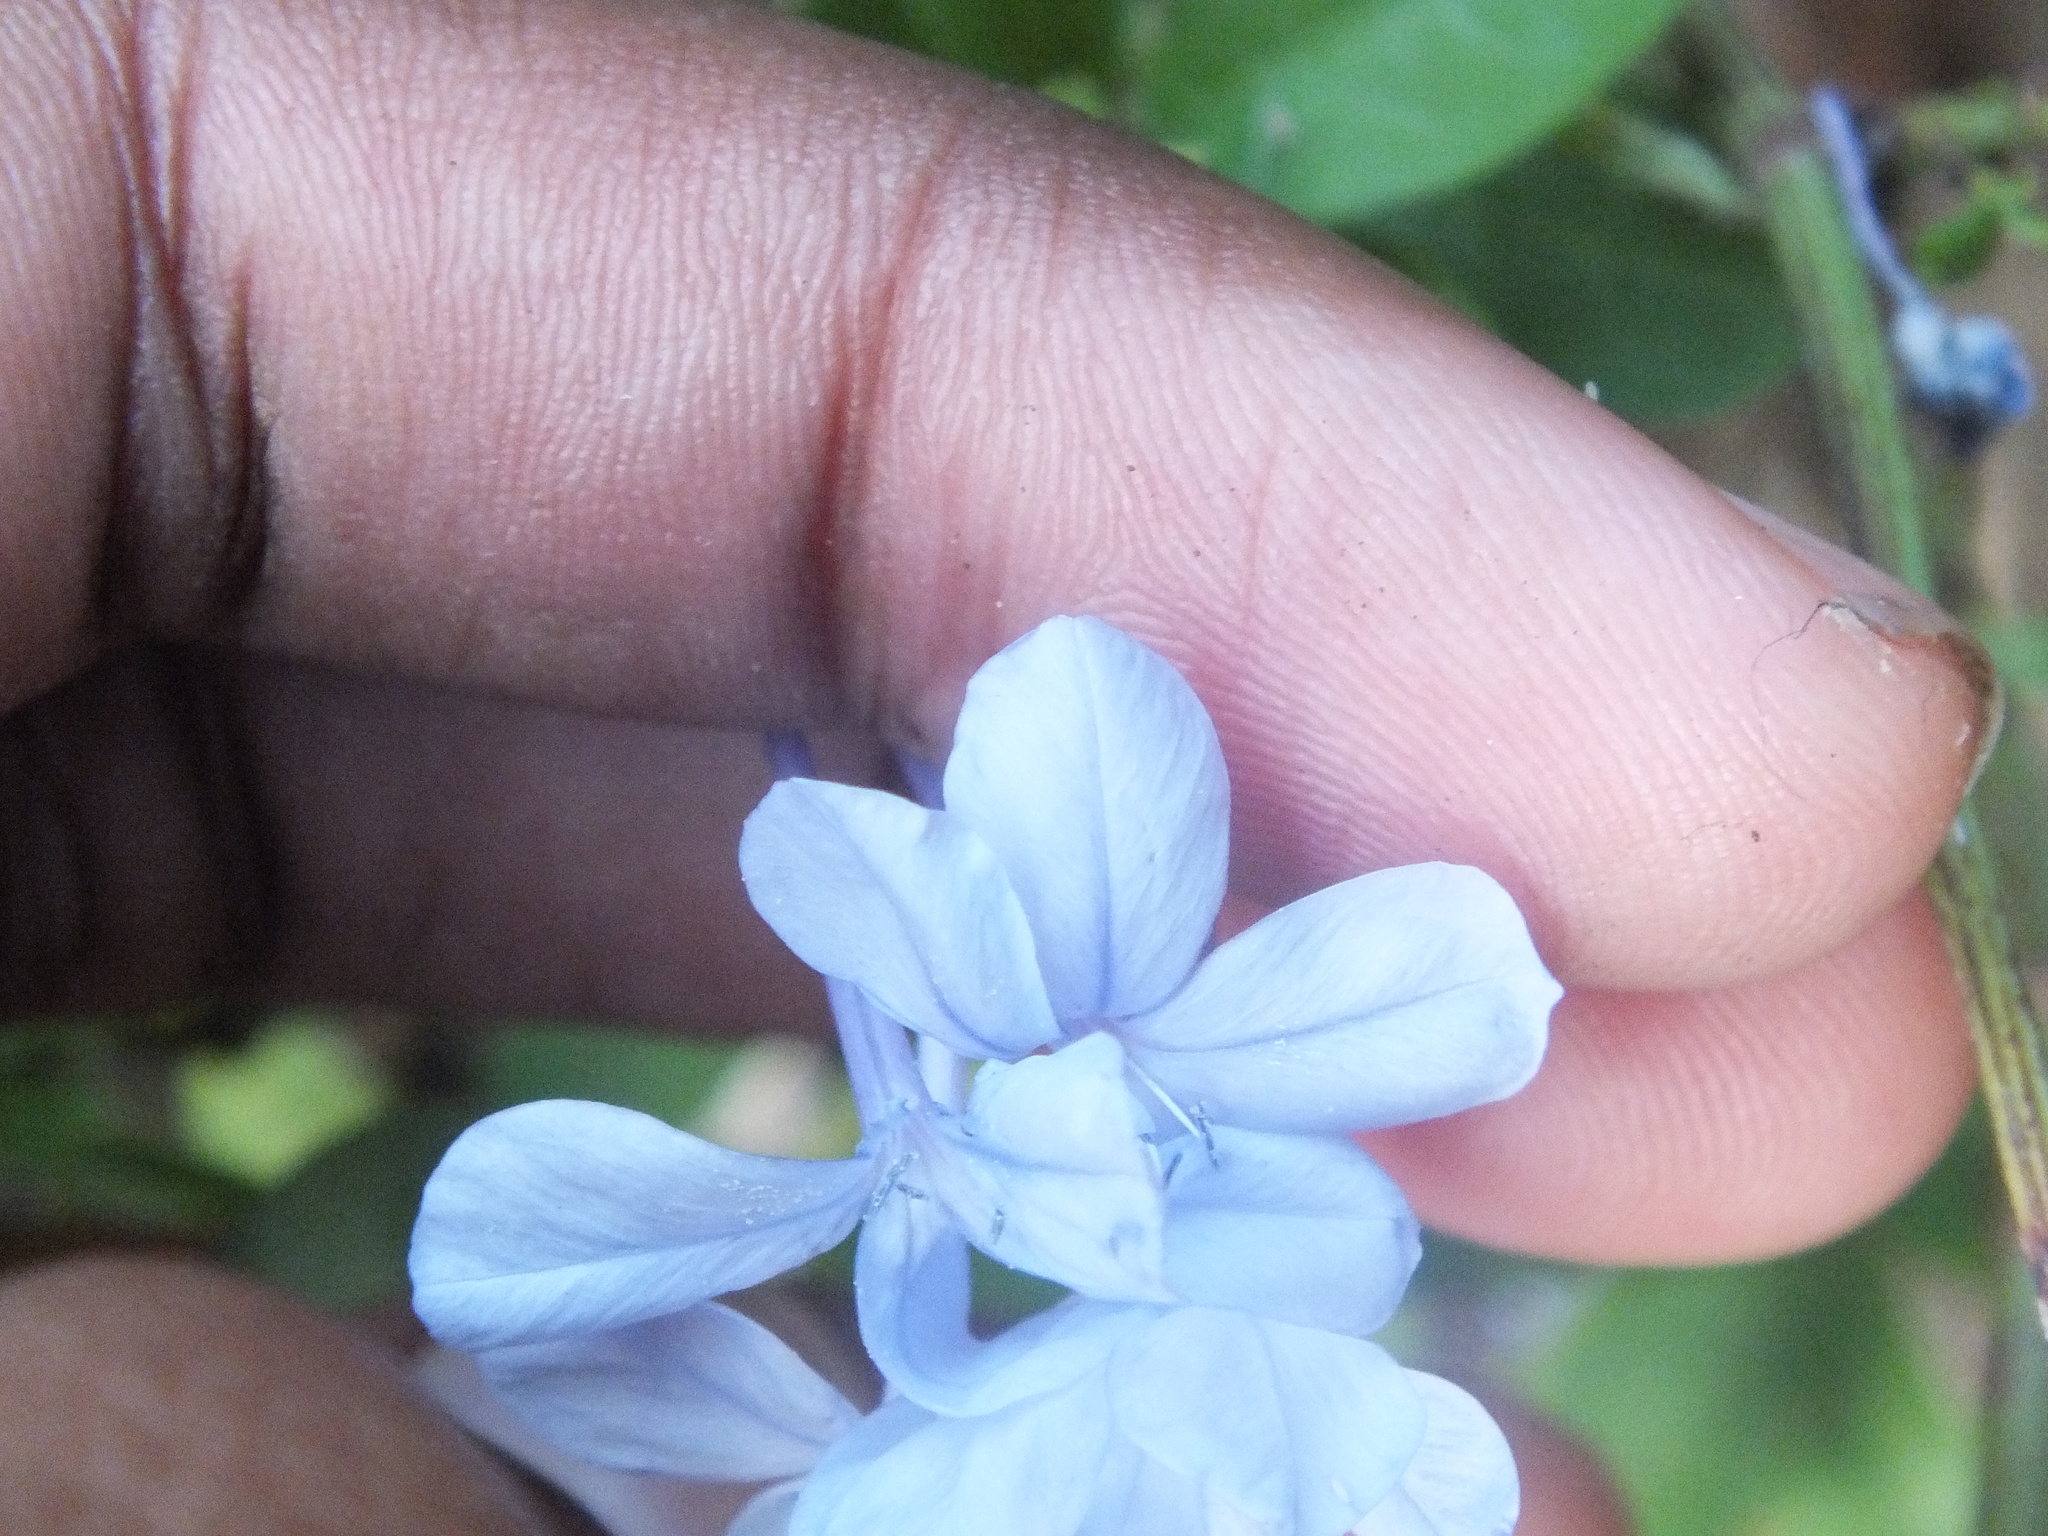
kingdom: Plantae
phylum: Tracheophyta
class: Magnoliopsida
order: Caryophyllales
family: Plumbaginaceae
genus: Plumbago
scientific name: Plumbago auriculata
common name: Cape leadwort
